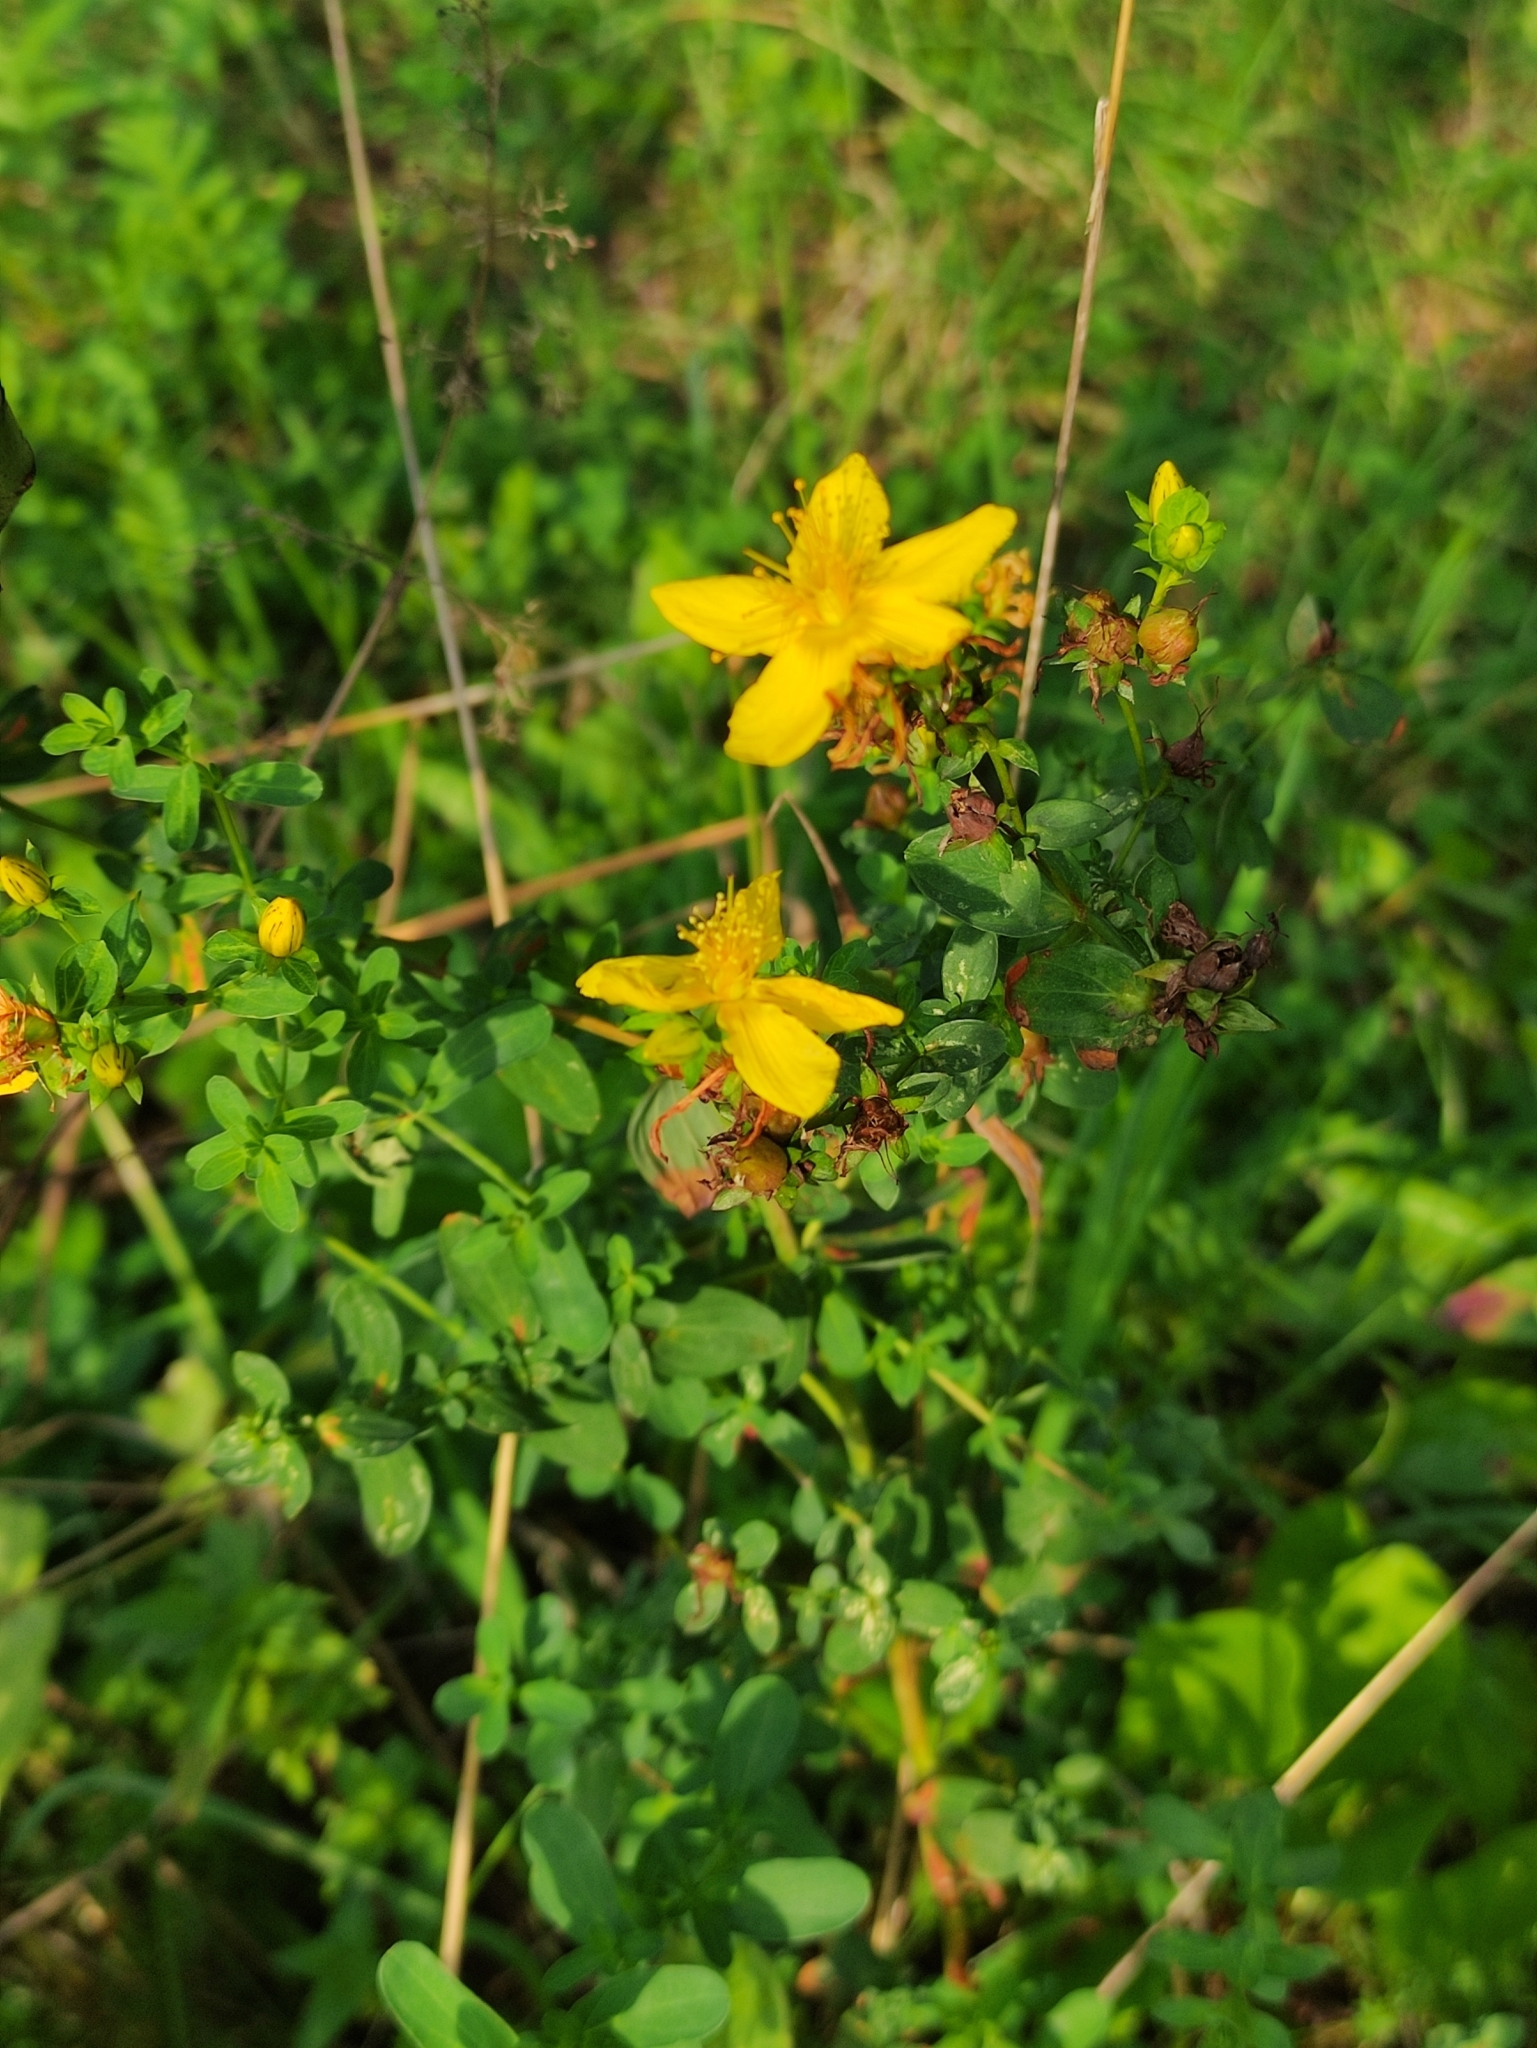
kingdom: Plantae
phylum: Tracheophyta
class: Magnoliopsida
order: Malpighiales
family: Hypericaceae
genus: Hypericum
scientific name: Hypericum perforatum
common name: Common st. johnswort
